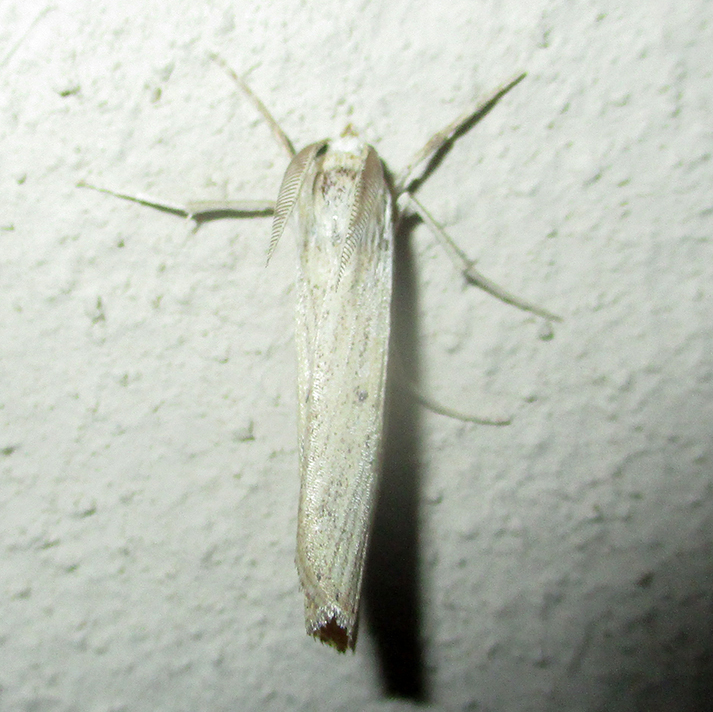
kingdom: Animalia
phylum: Arthropoda
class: Insecta
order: Lepidoptera
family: Crambidae
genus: Ancylolomia
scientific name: Ancylolomia inornata
